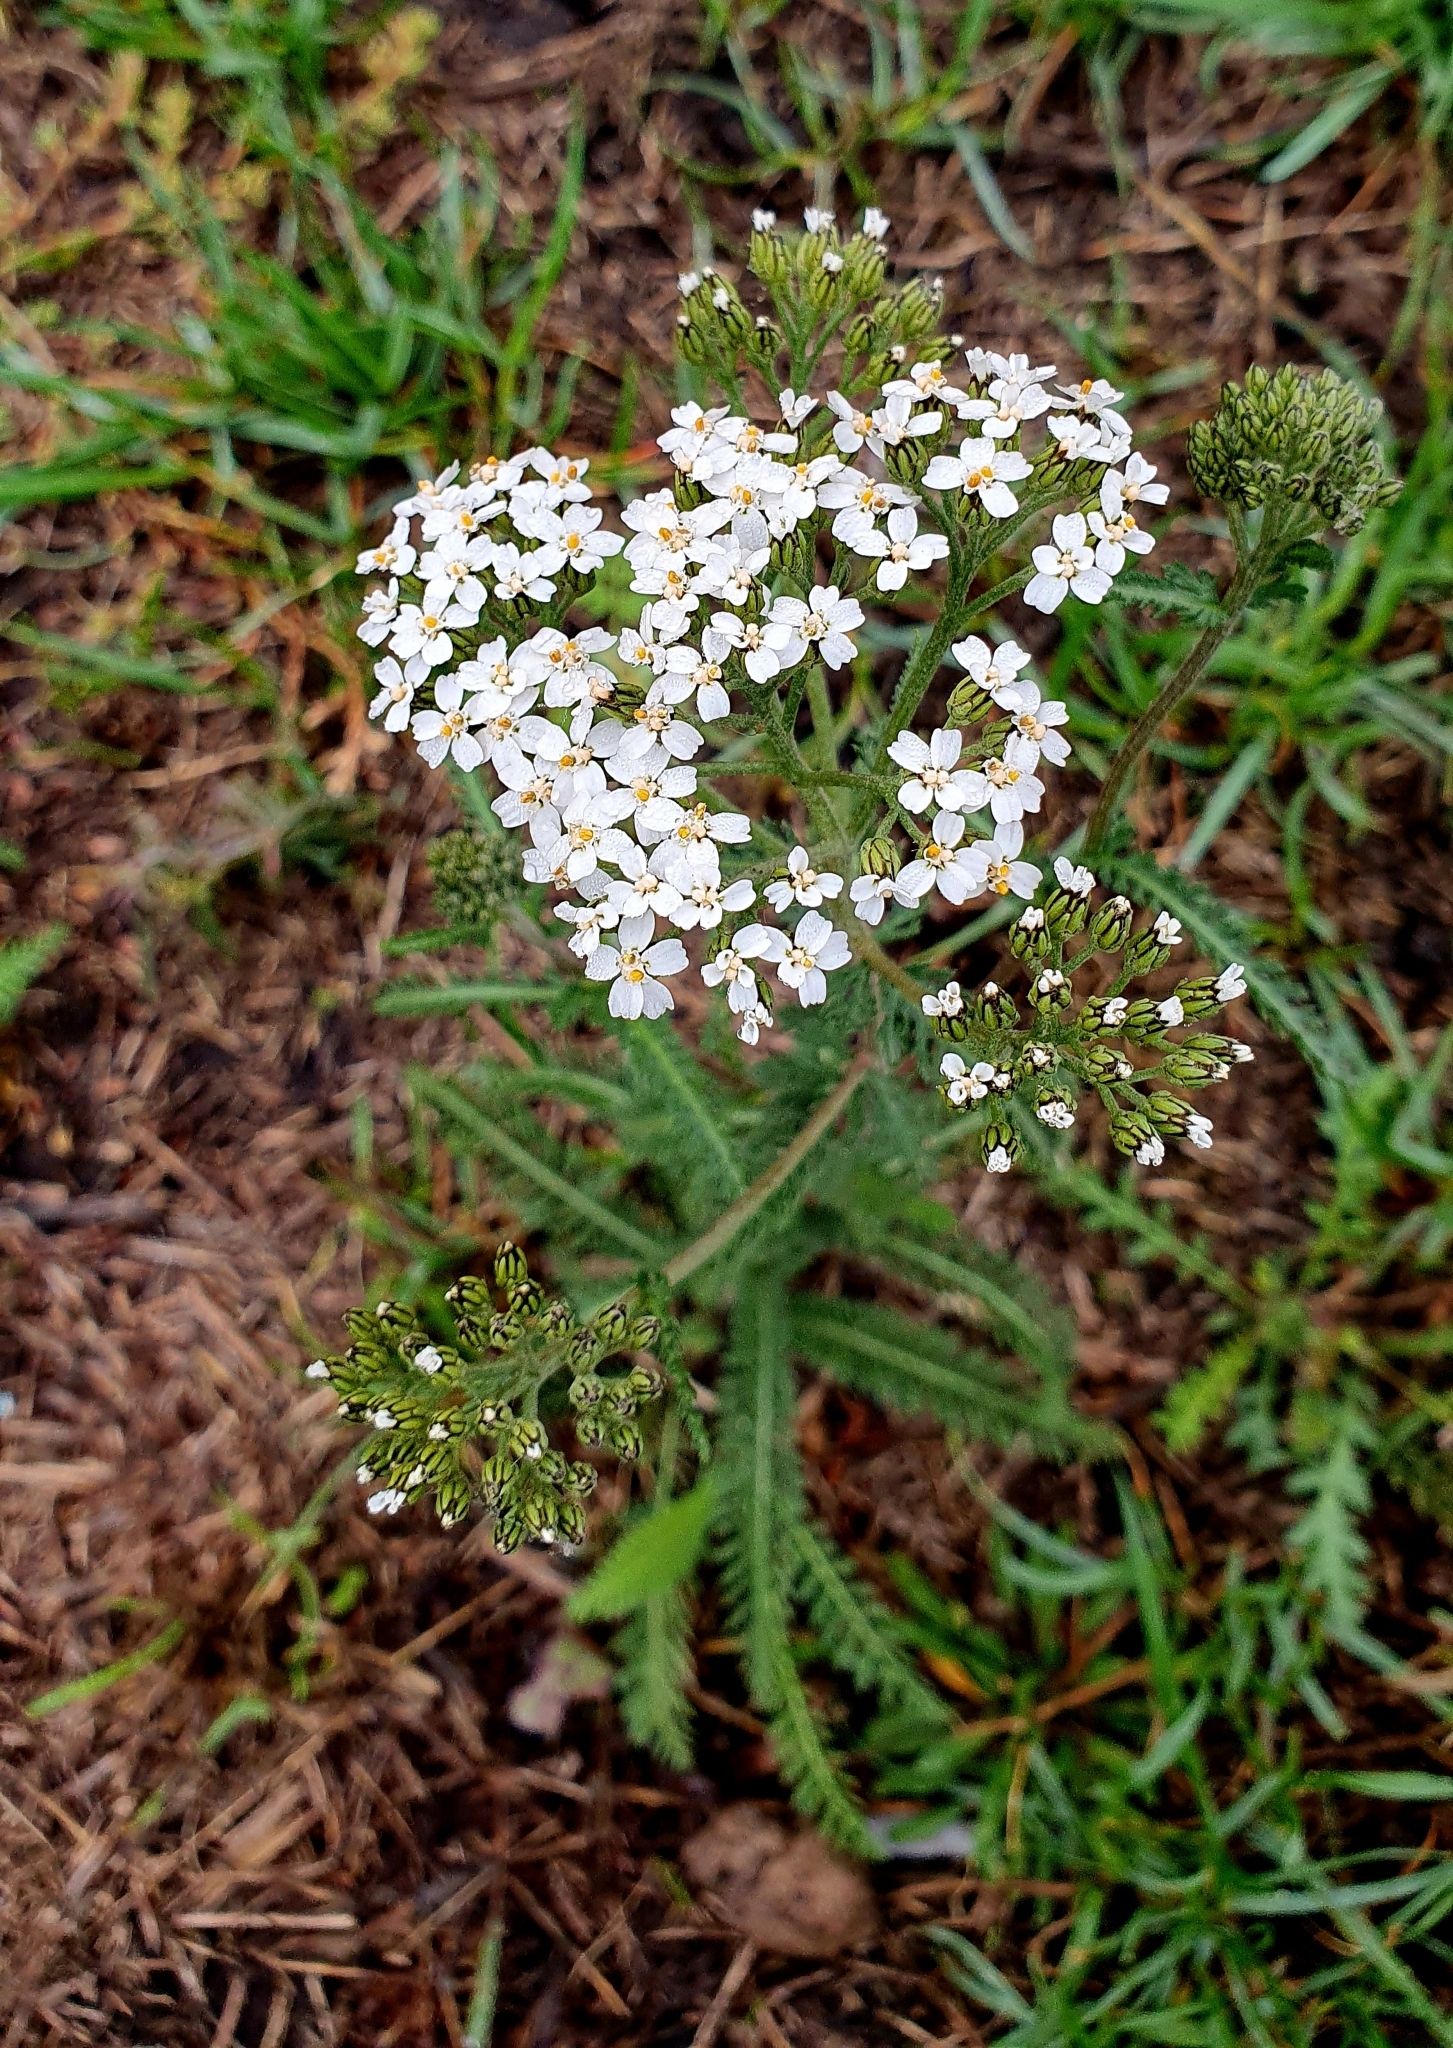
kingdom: Plantae
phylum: Tracheophyta
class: Magnoliopsida
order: Asterales
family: Asteraceae
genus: Achillea
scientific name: Achillea millefolium
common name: Yarrow
